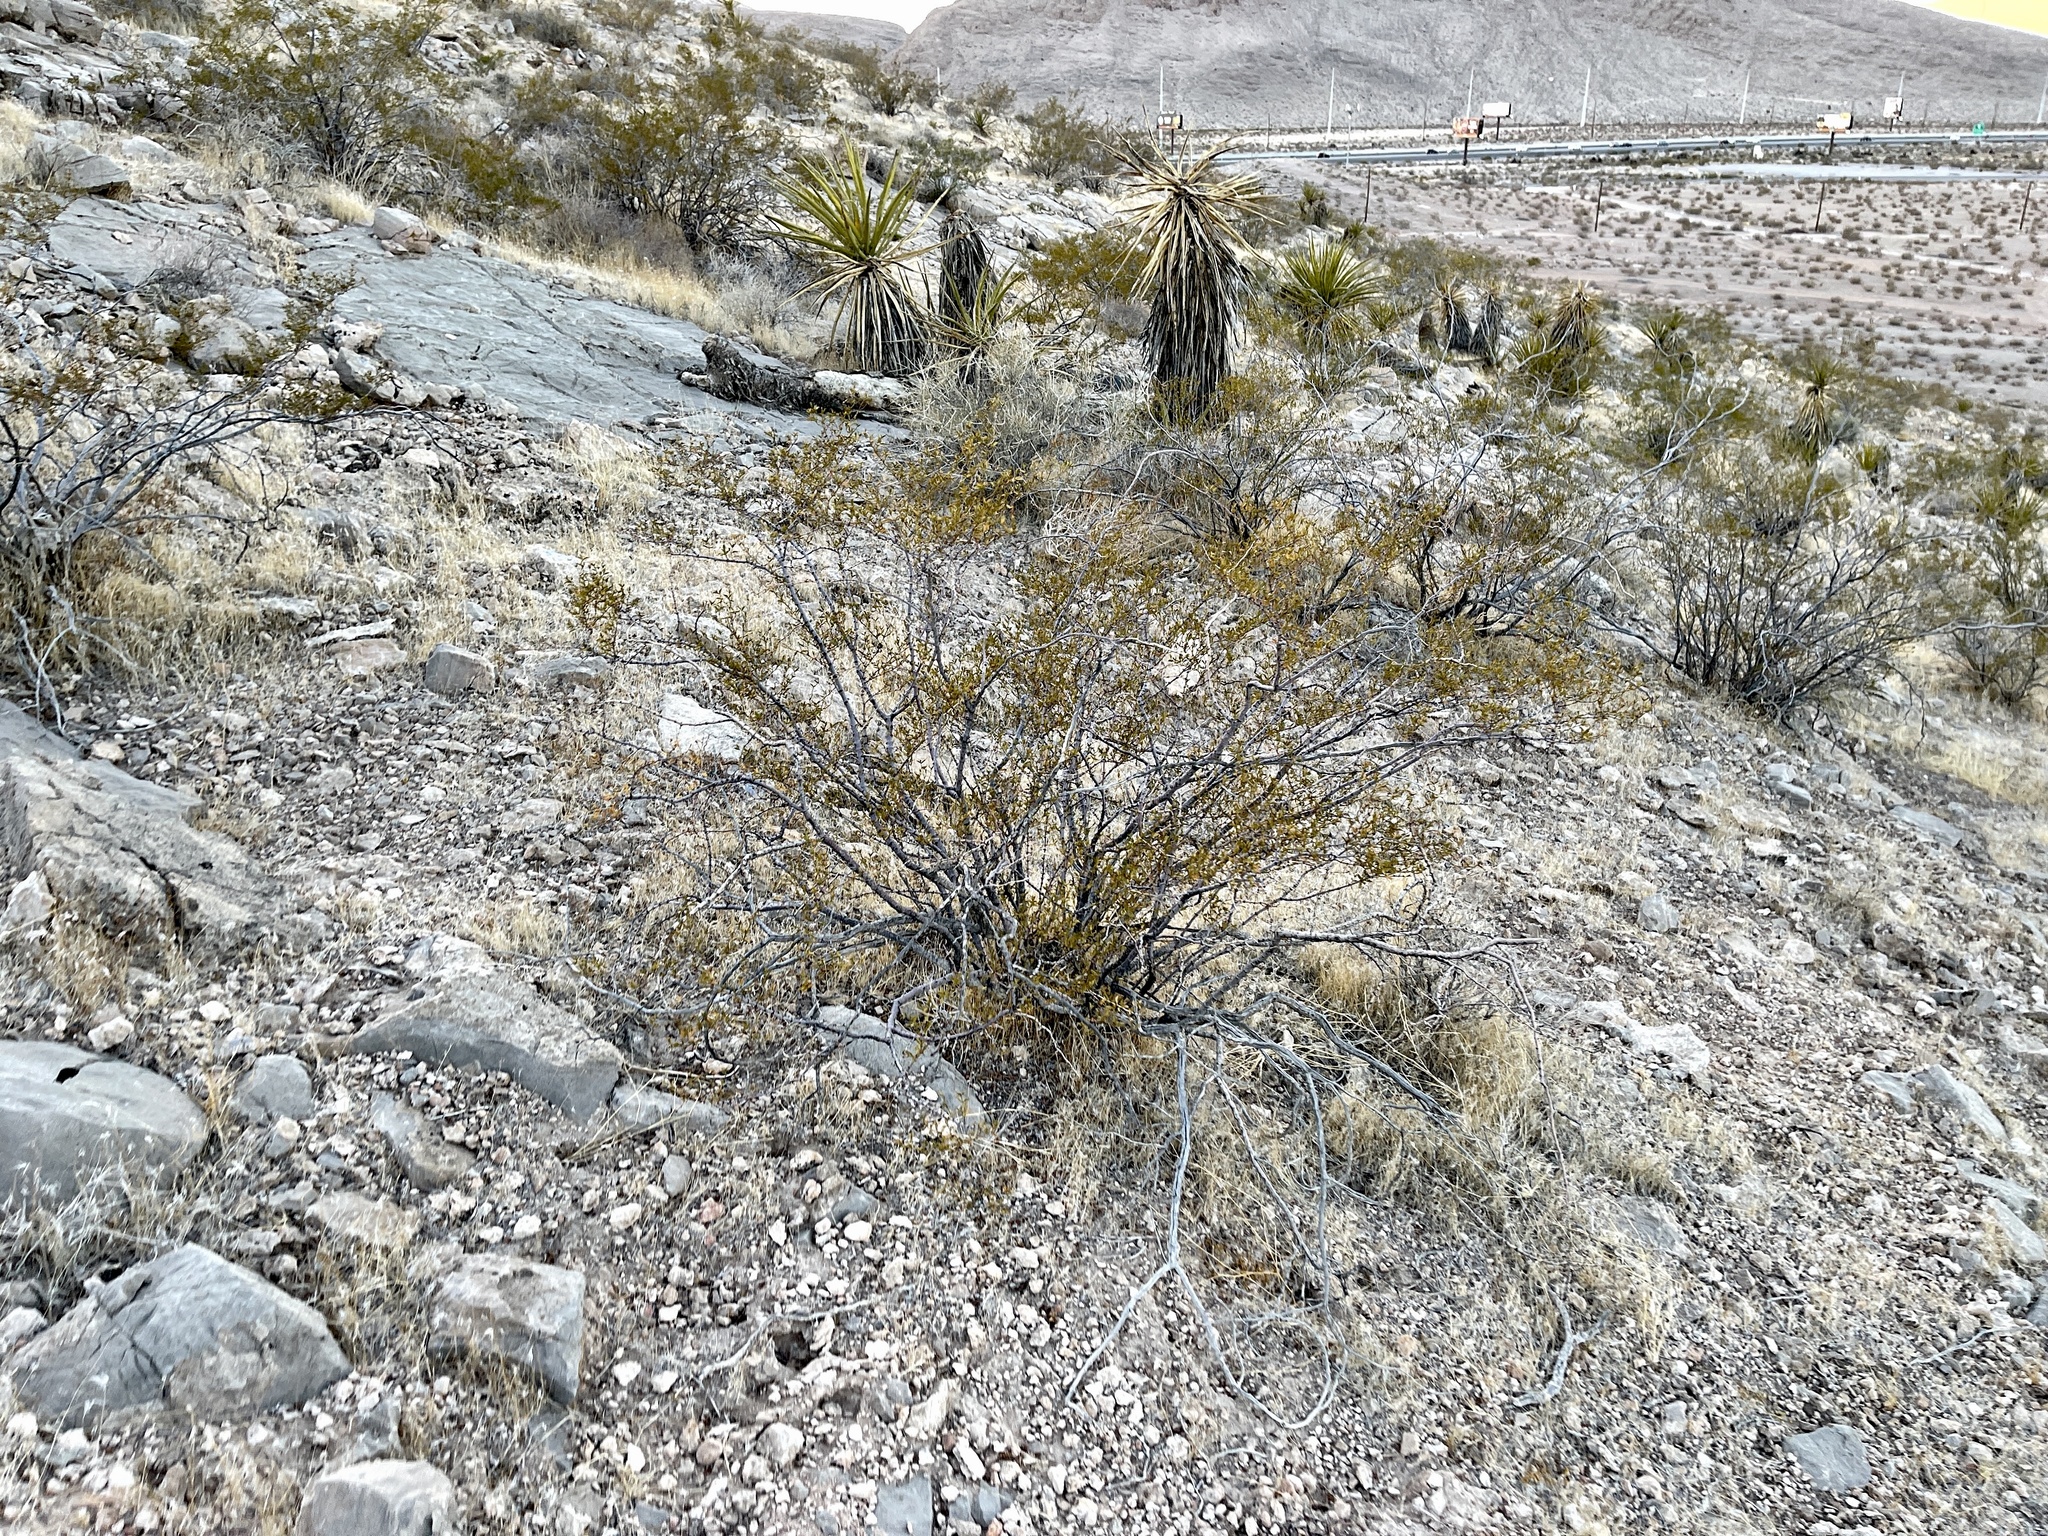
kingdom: Plantae
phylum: Tracheophyta
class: Magnoliopsida
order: Zygophyllales
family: Zygophyllaceae
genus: Larrea
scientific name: Larrea tridentata
